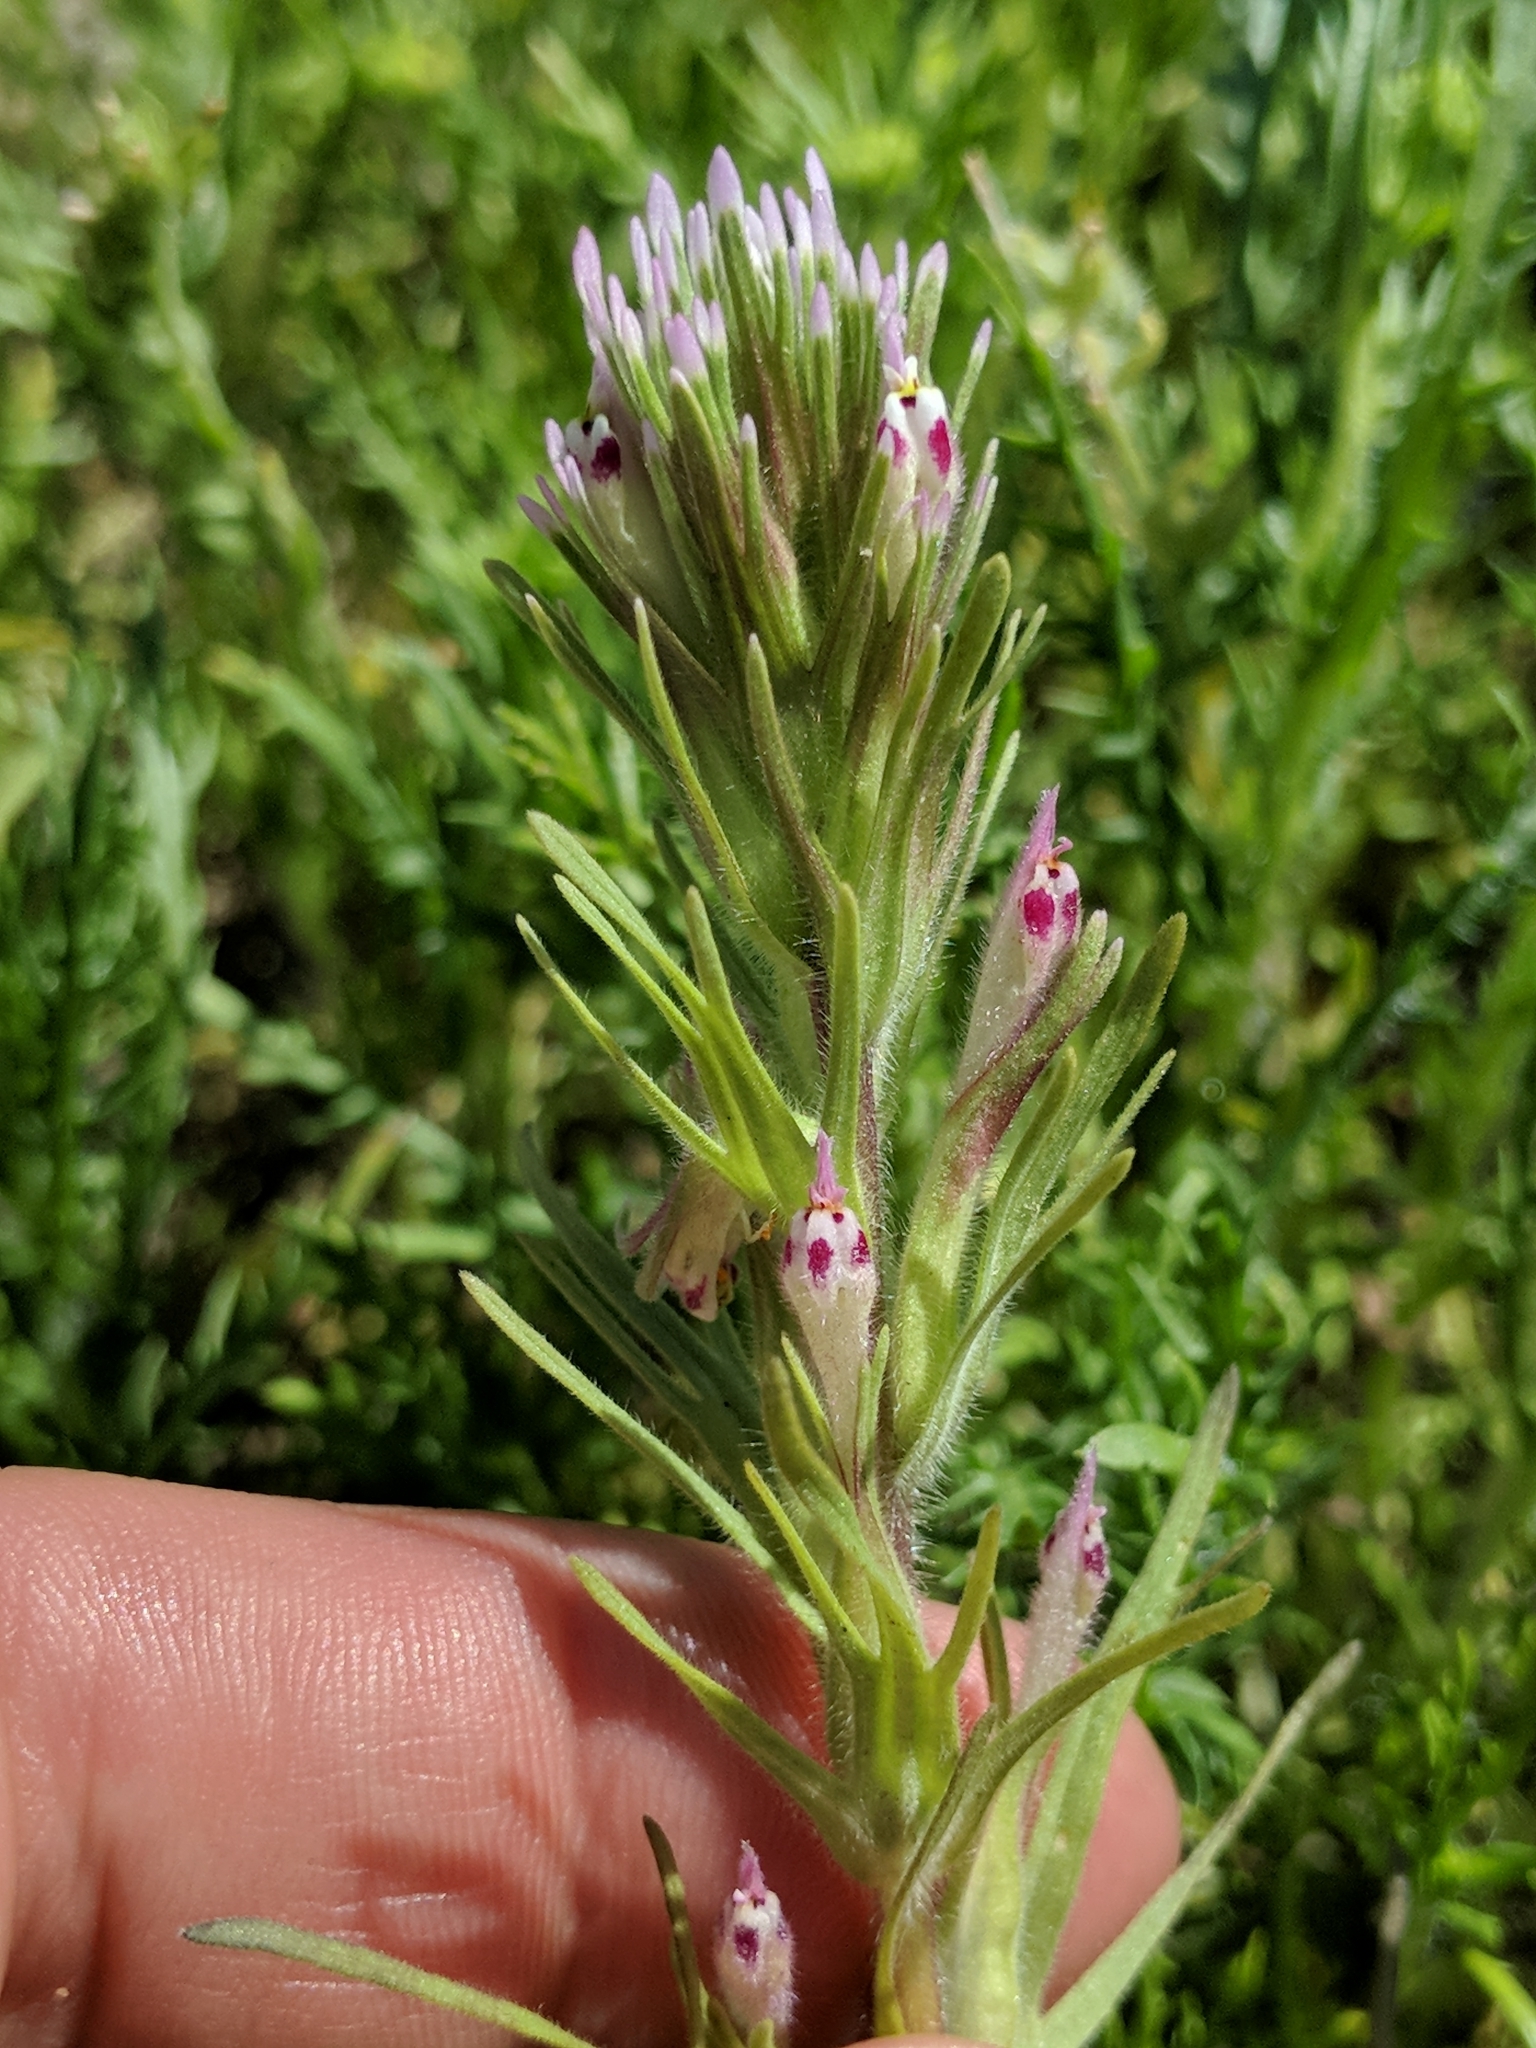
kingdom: Plantae
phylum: Tracheophyta
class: Magnoliopsida
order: Lamiales
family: Orobanchaceae
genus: Castilleja
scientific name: Castilleja attenuata
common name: Valley tassels
